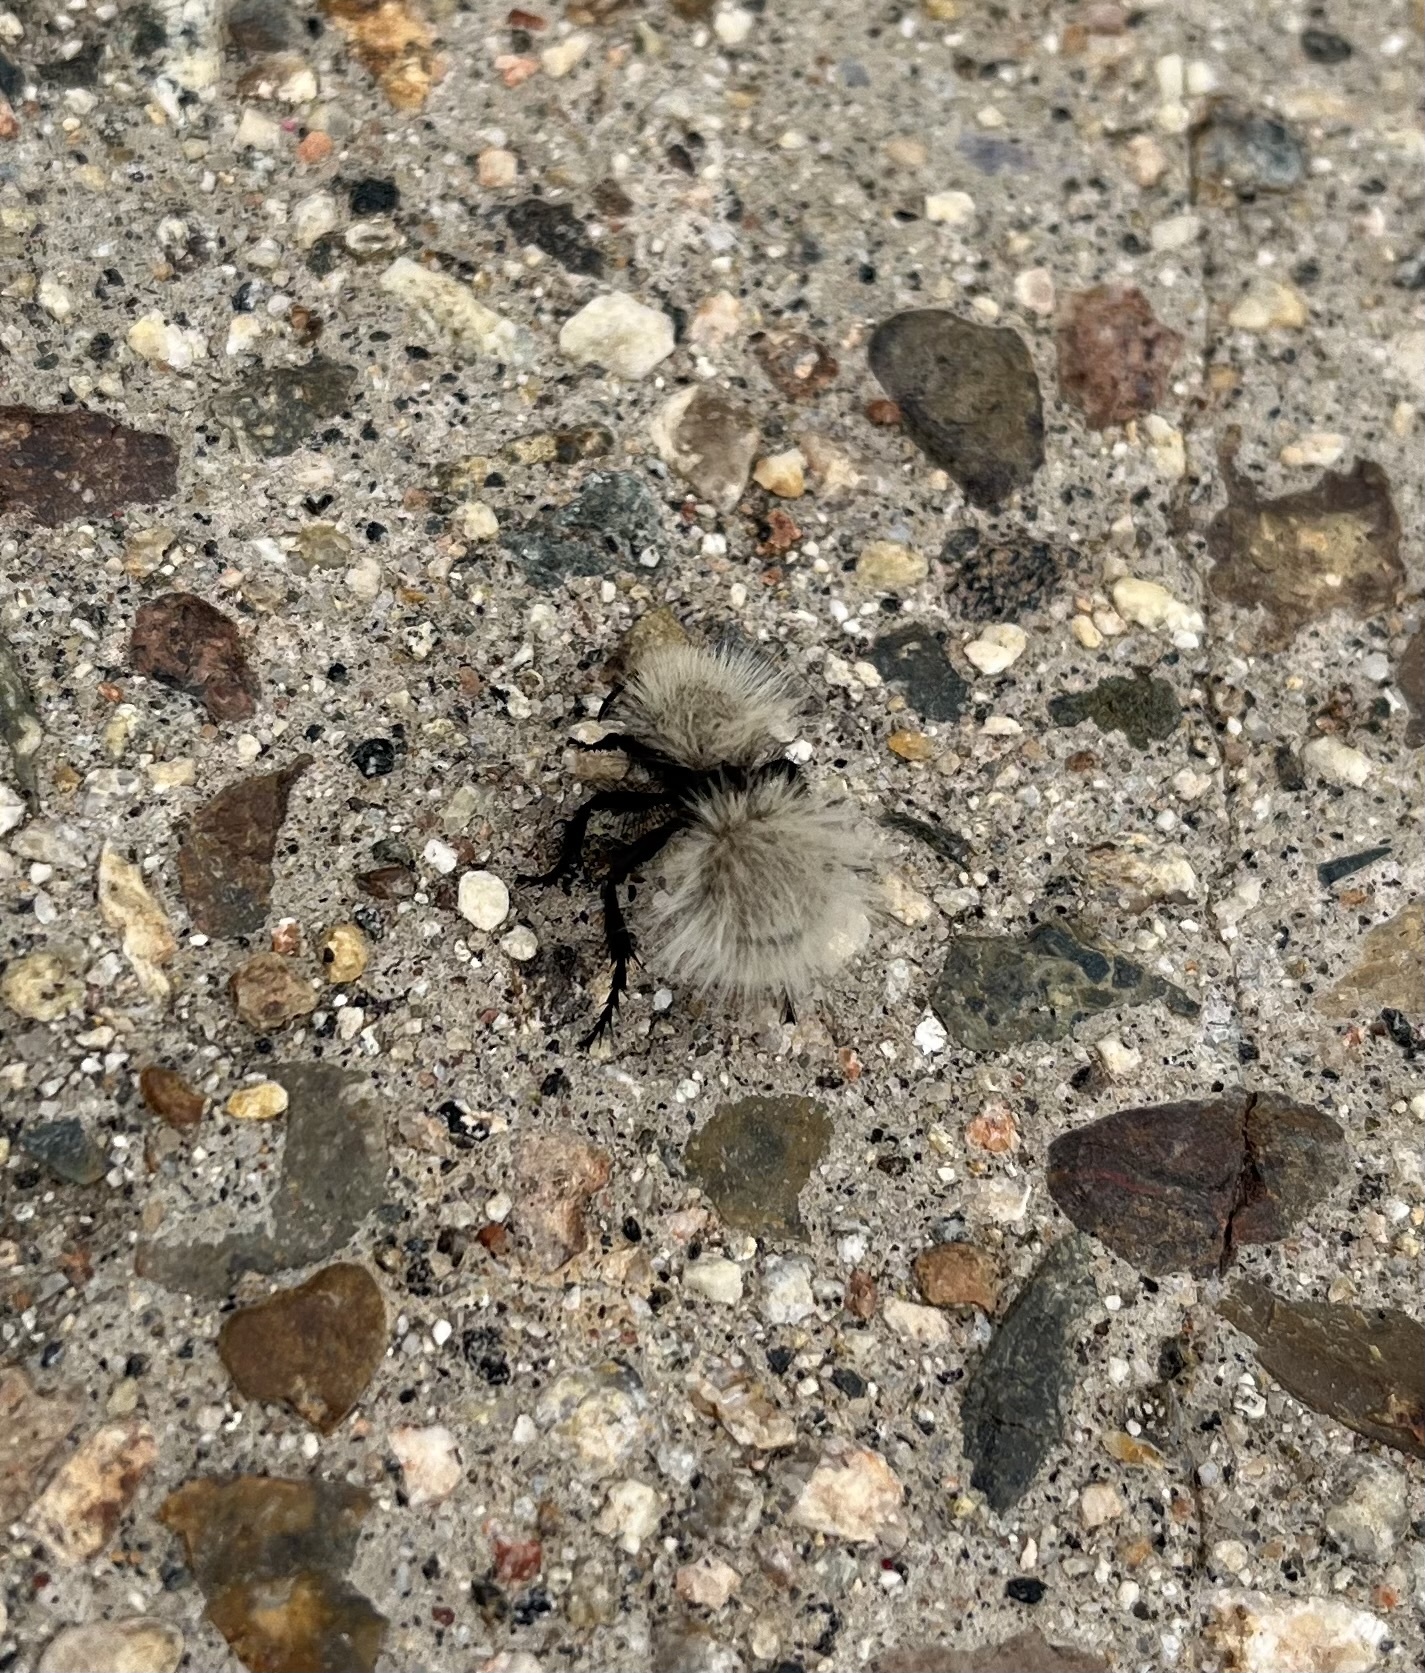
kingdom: Animalia
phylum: Arthropoda
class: Insecta
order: Hymenoptera
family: Mutillidae
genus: Dasymutilla
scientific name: Dasymutilla
